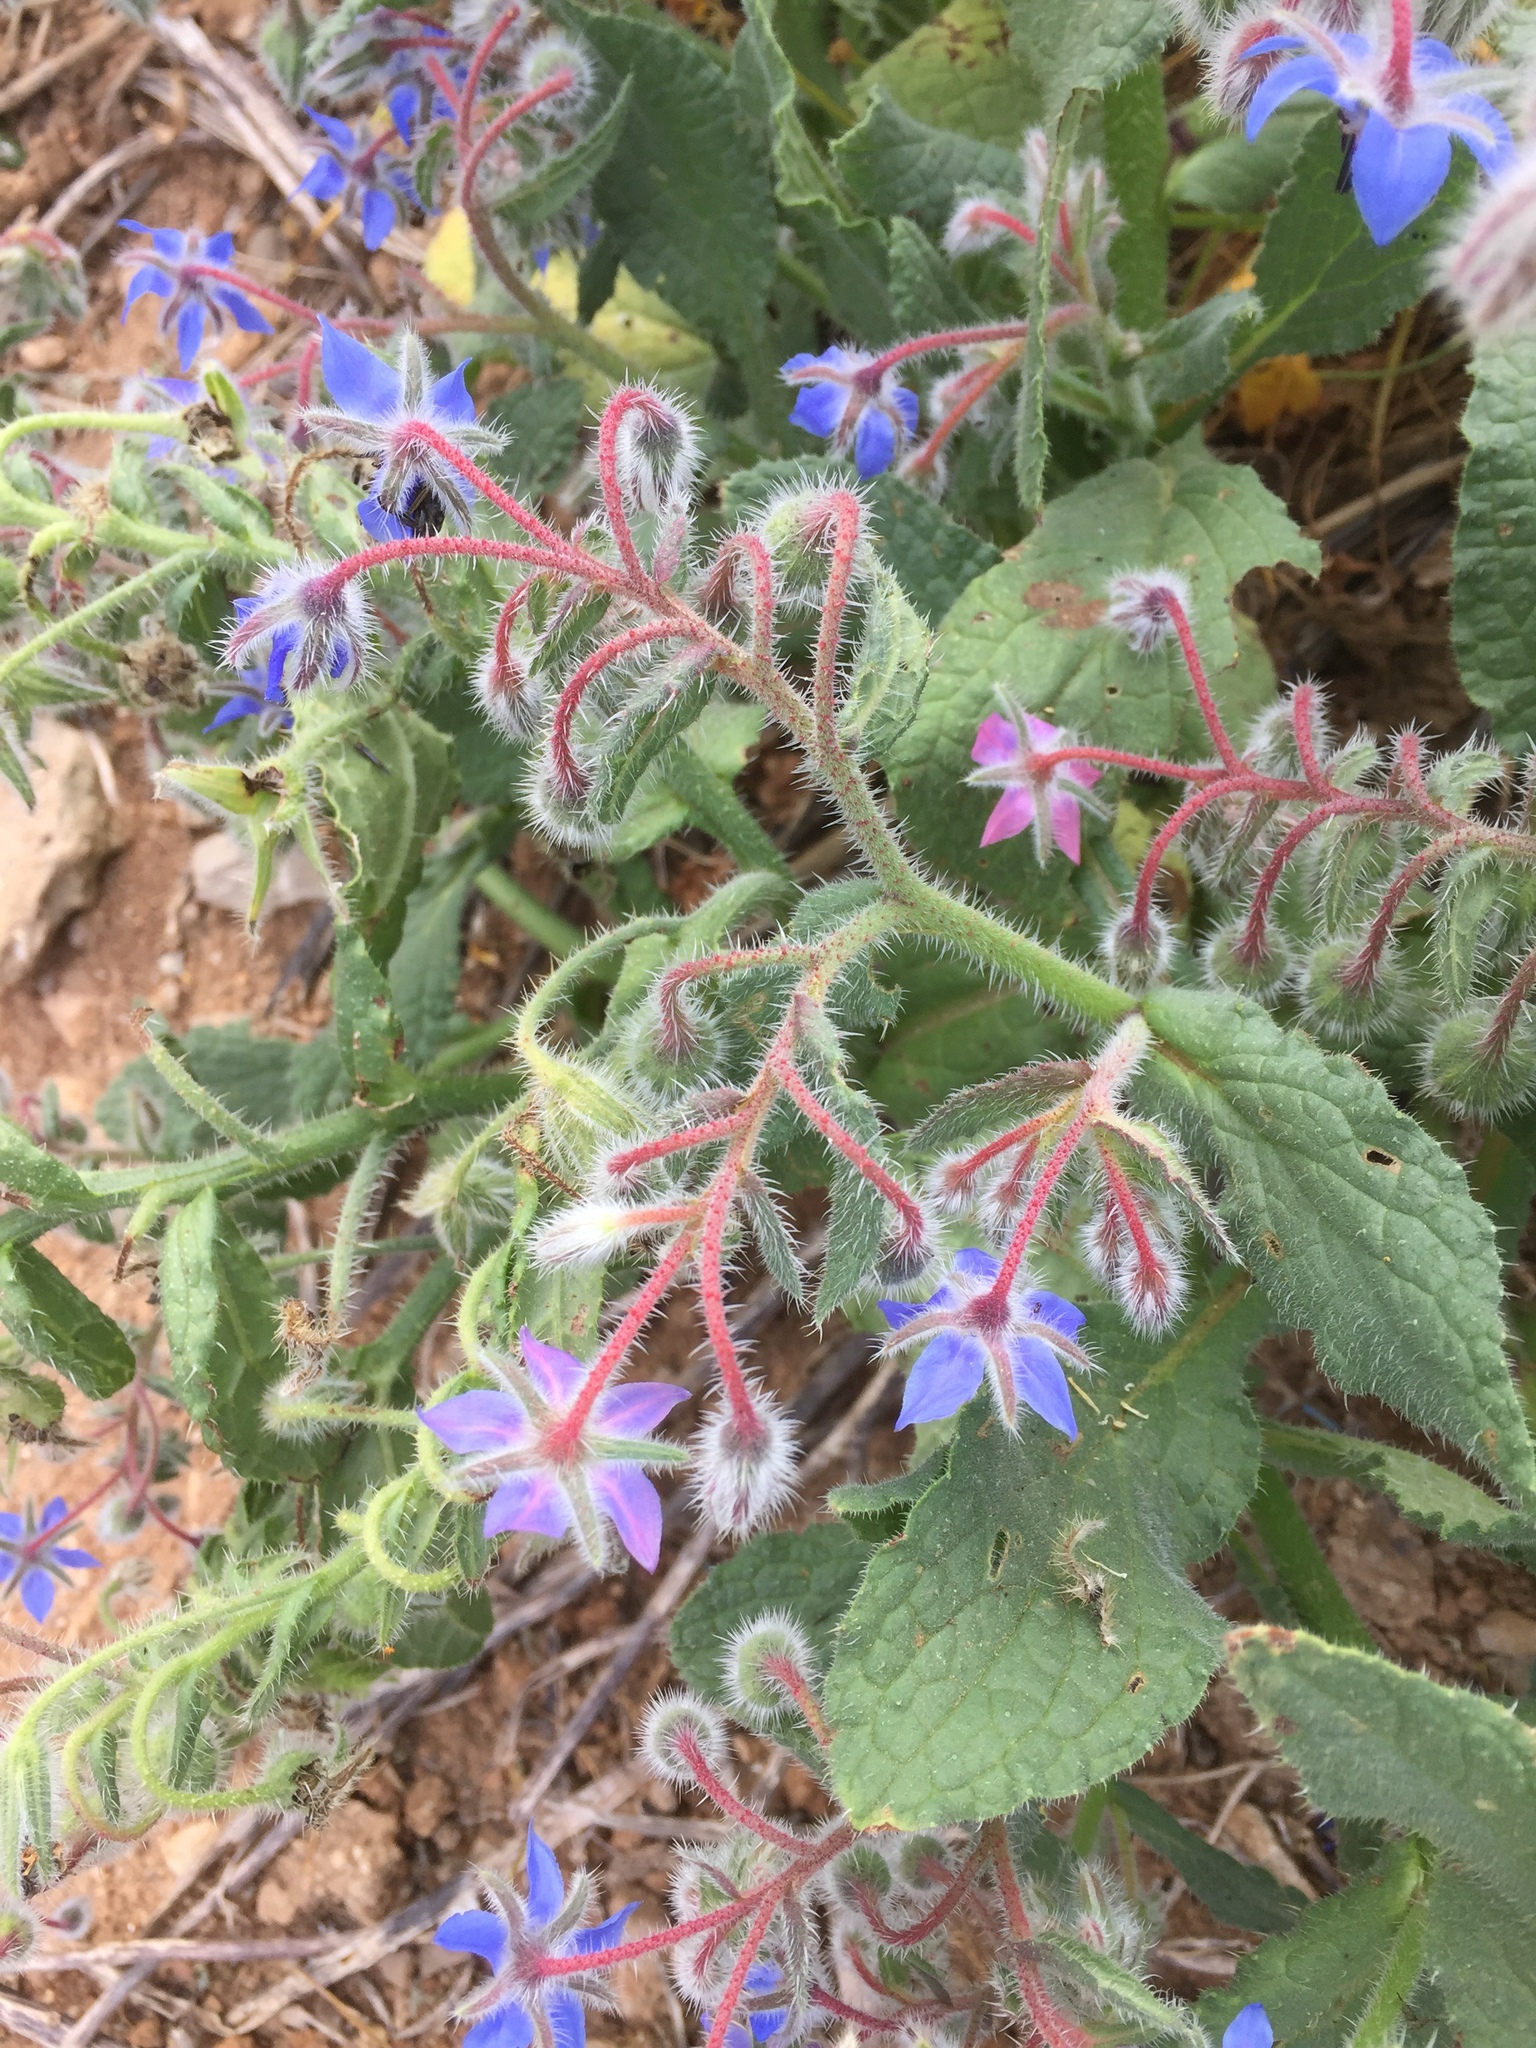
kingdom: Plantae
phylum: Tracheophyta
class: Magnoliopsida
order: Boraginales
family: Boraginaceae
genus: Borago
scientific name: Borago officinalis
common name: Borage
